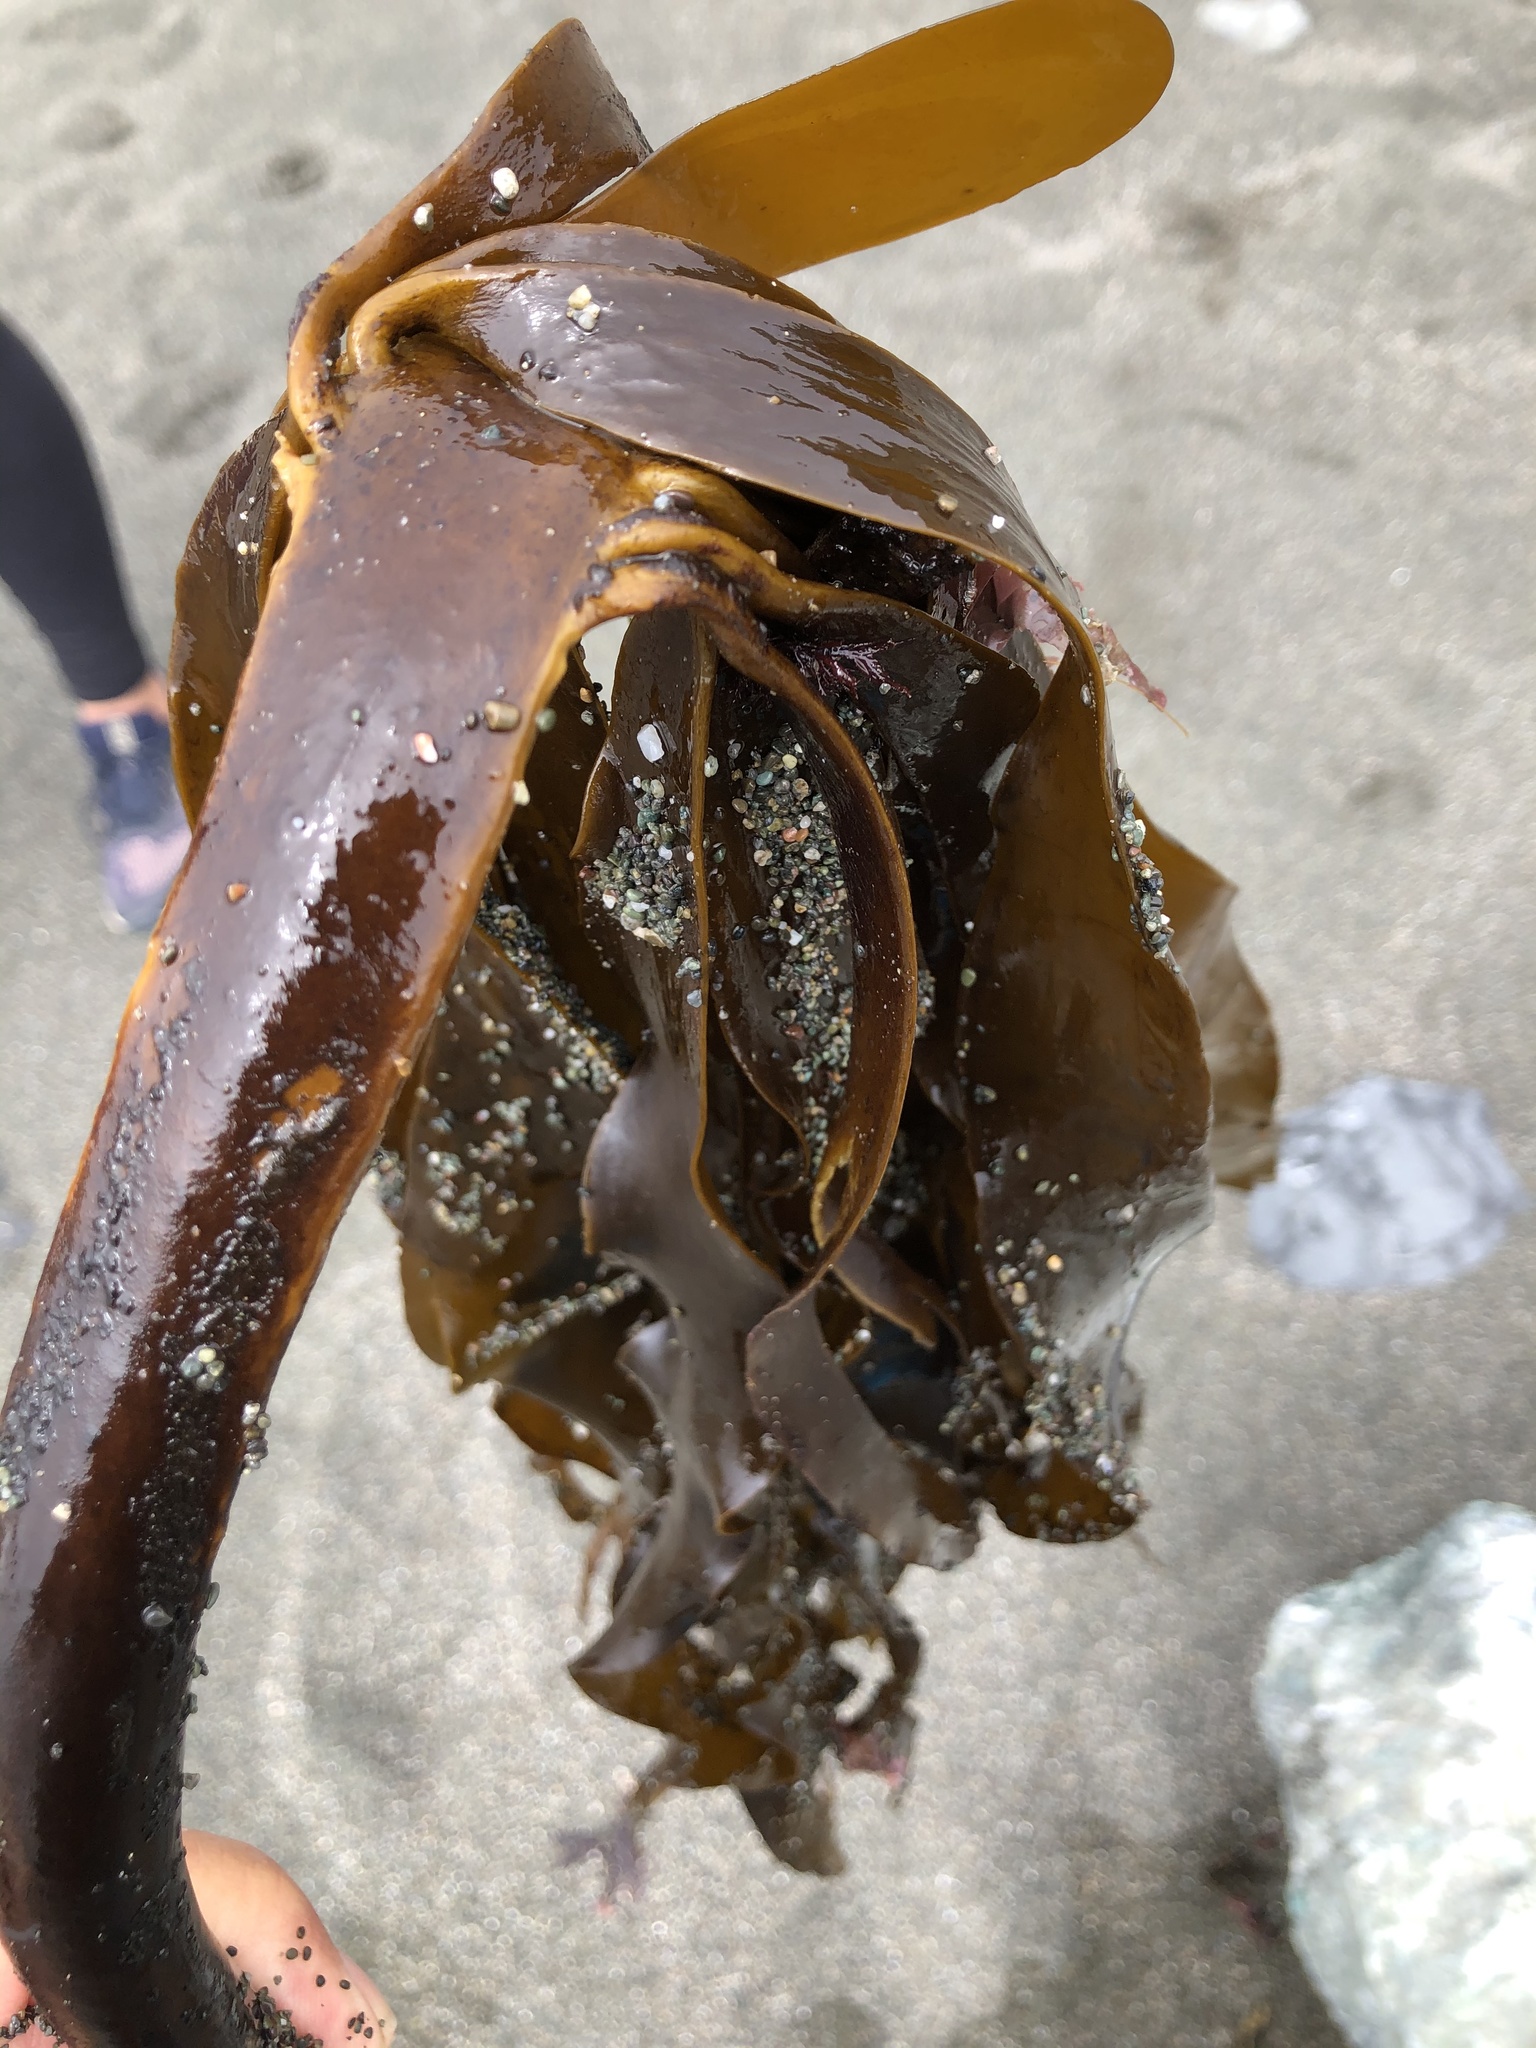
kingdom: Chromista
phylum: Ochrophyta
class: Phaeophyceae
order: Laminariales
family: Alariaceae
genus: Pterygophora
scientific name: Pterygophora californica
